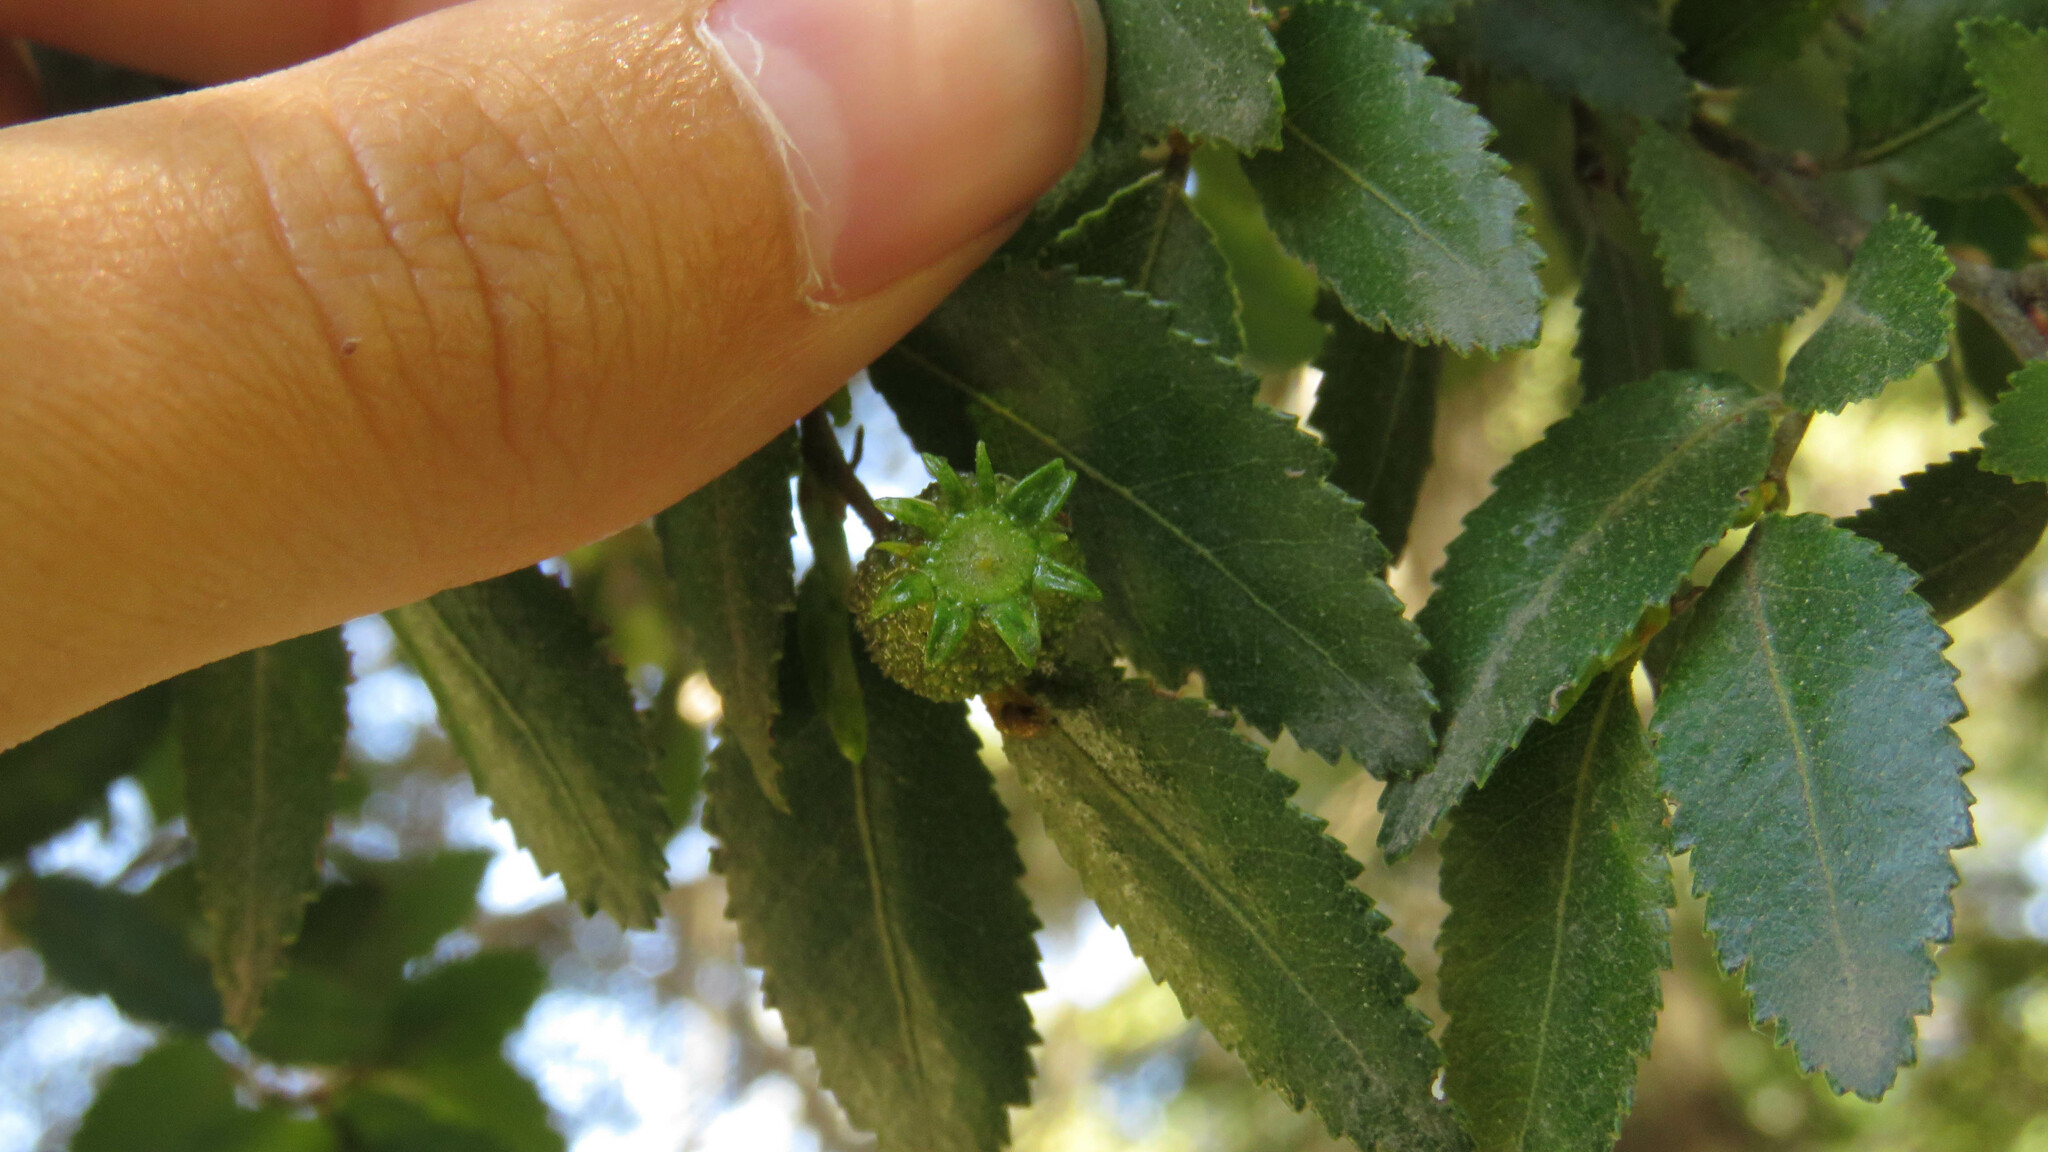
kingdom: Plantae
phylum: Tracheophyta
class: Magnoliopsida
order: Fagales
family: Nothofagaceae
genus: Nothofagus
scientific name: Nothofagus dombeyi
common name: Coigue
